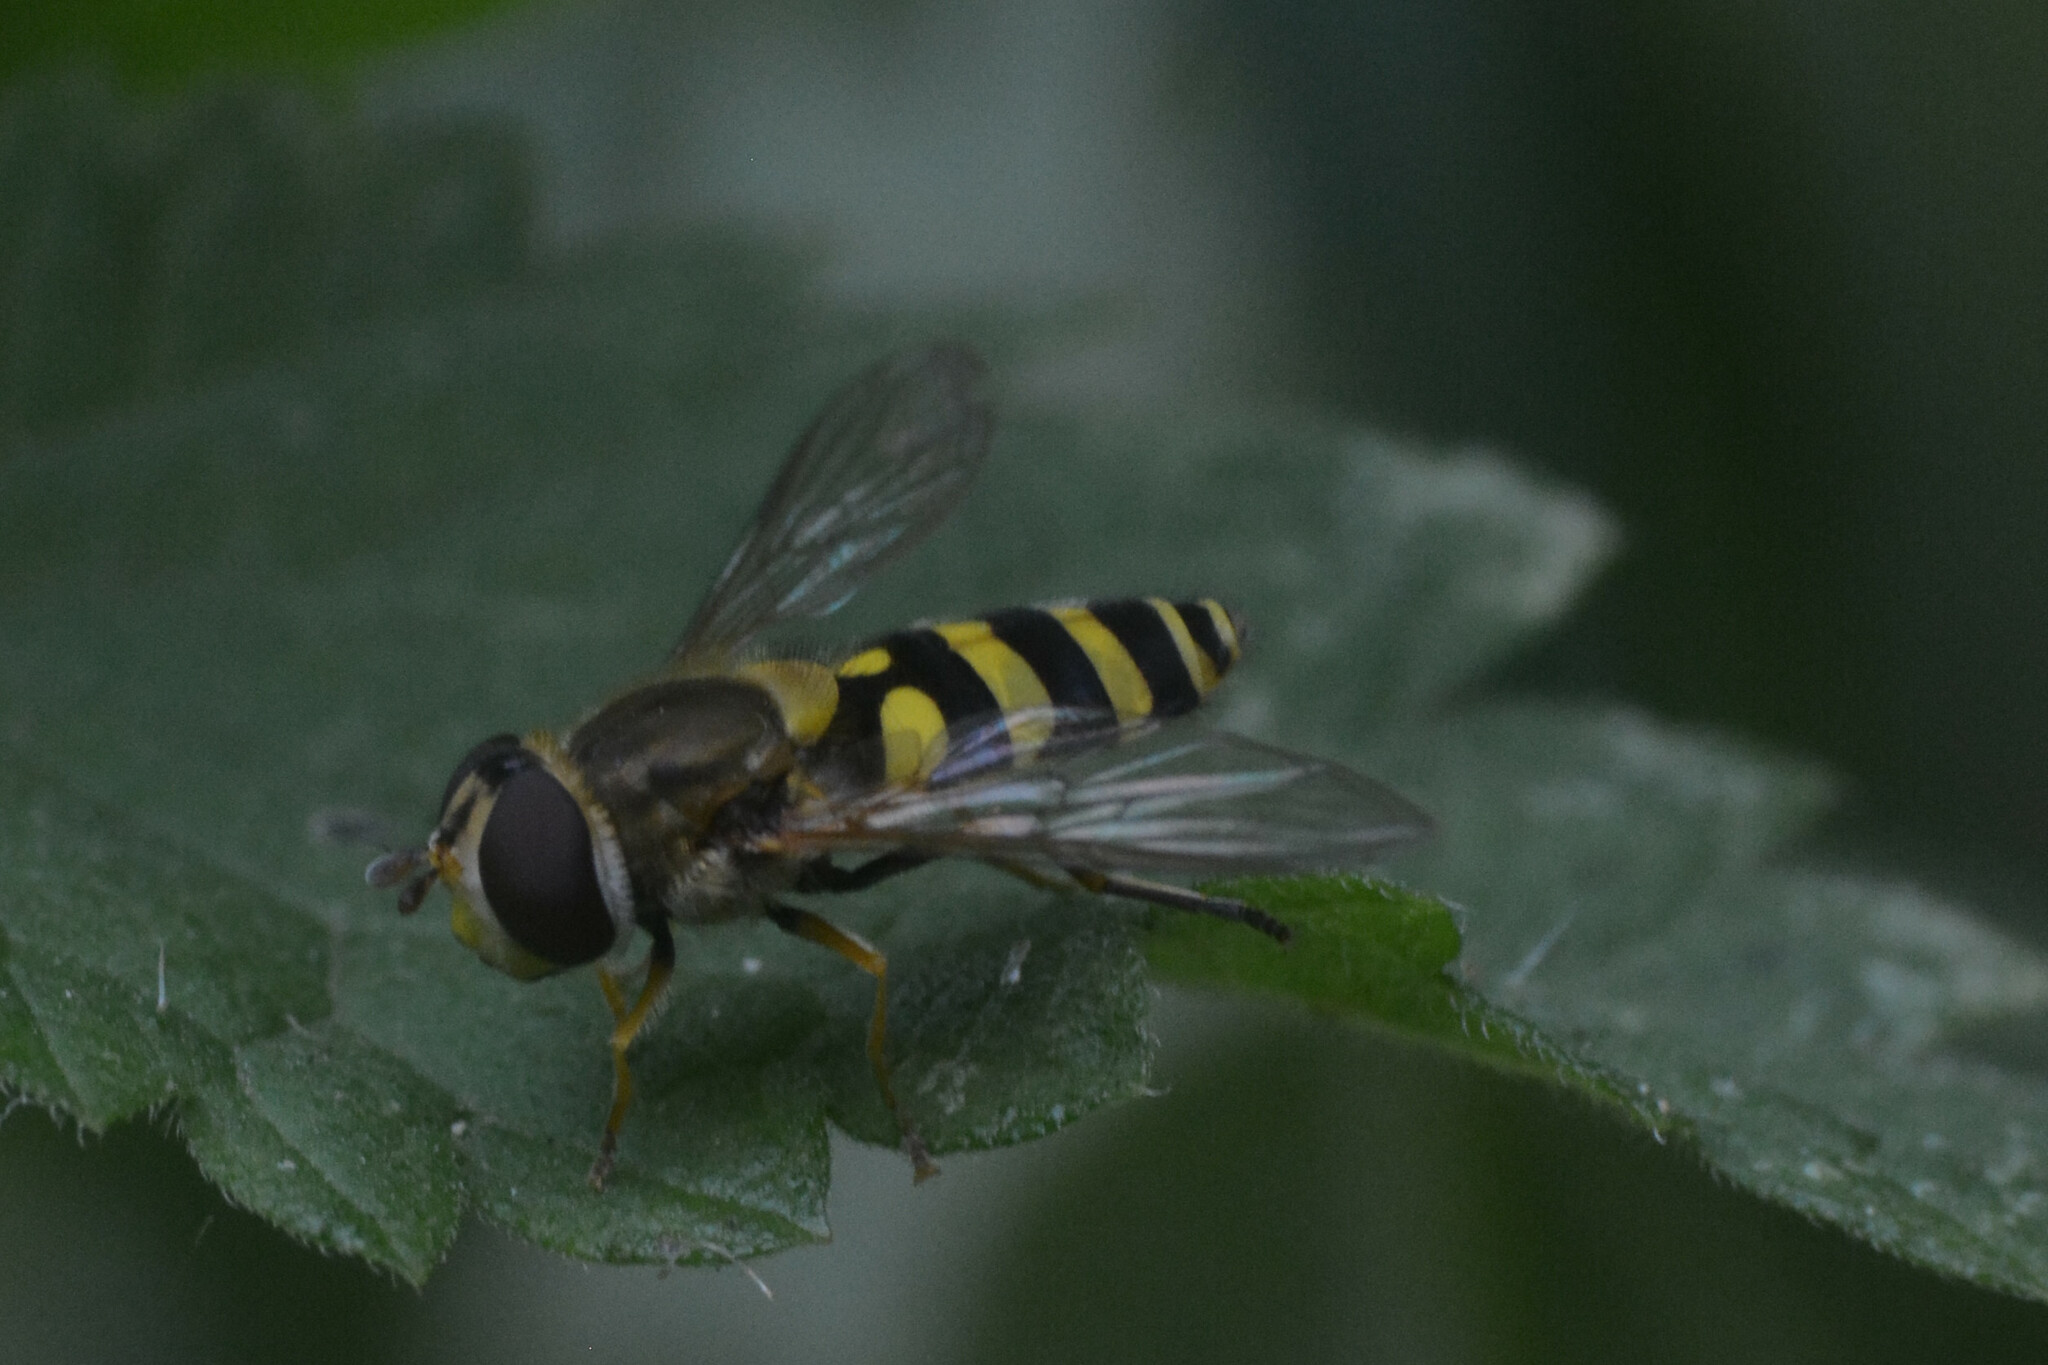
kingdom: Animalia
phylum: Arthropoda
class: Insecta
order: Diptera
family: Syrphidae
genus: Syrphus
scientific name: Syrphus
